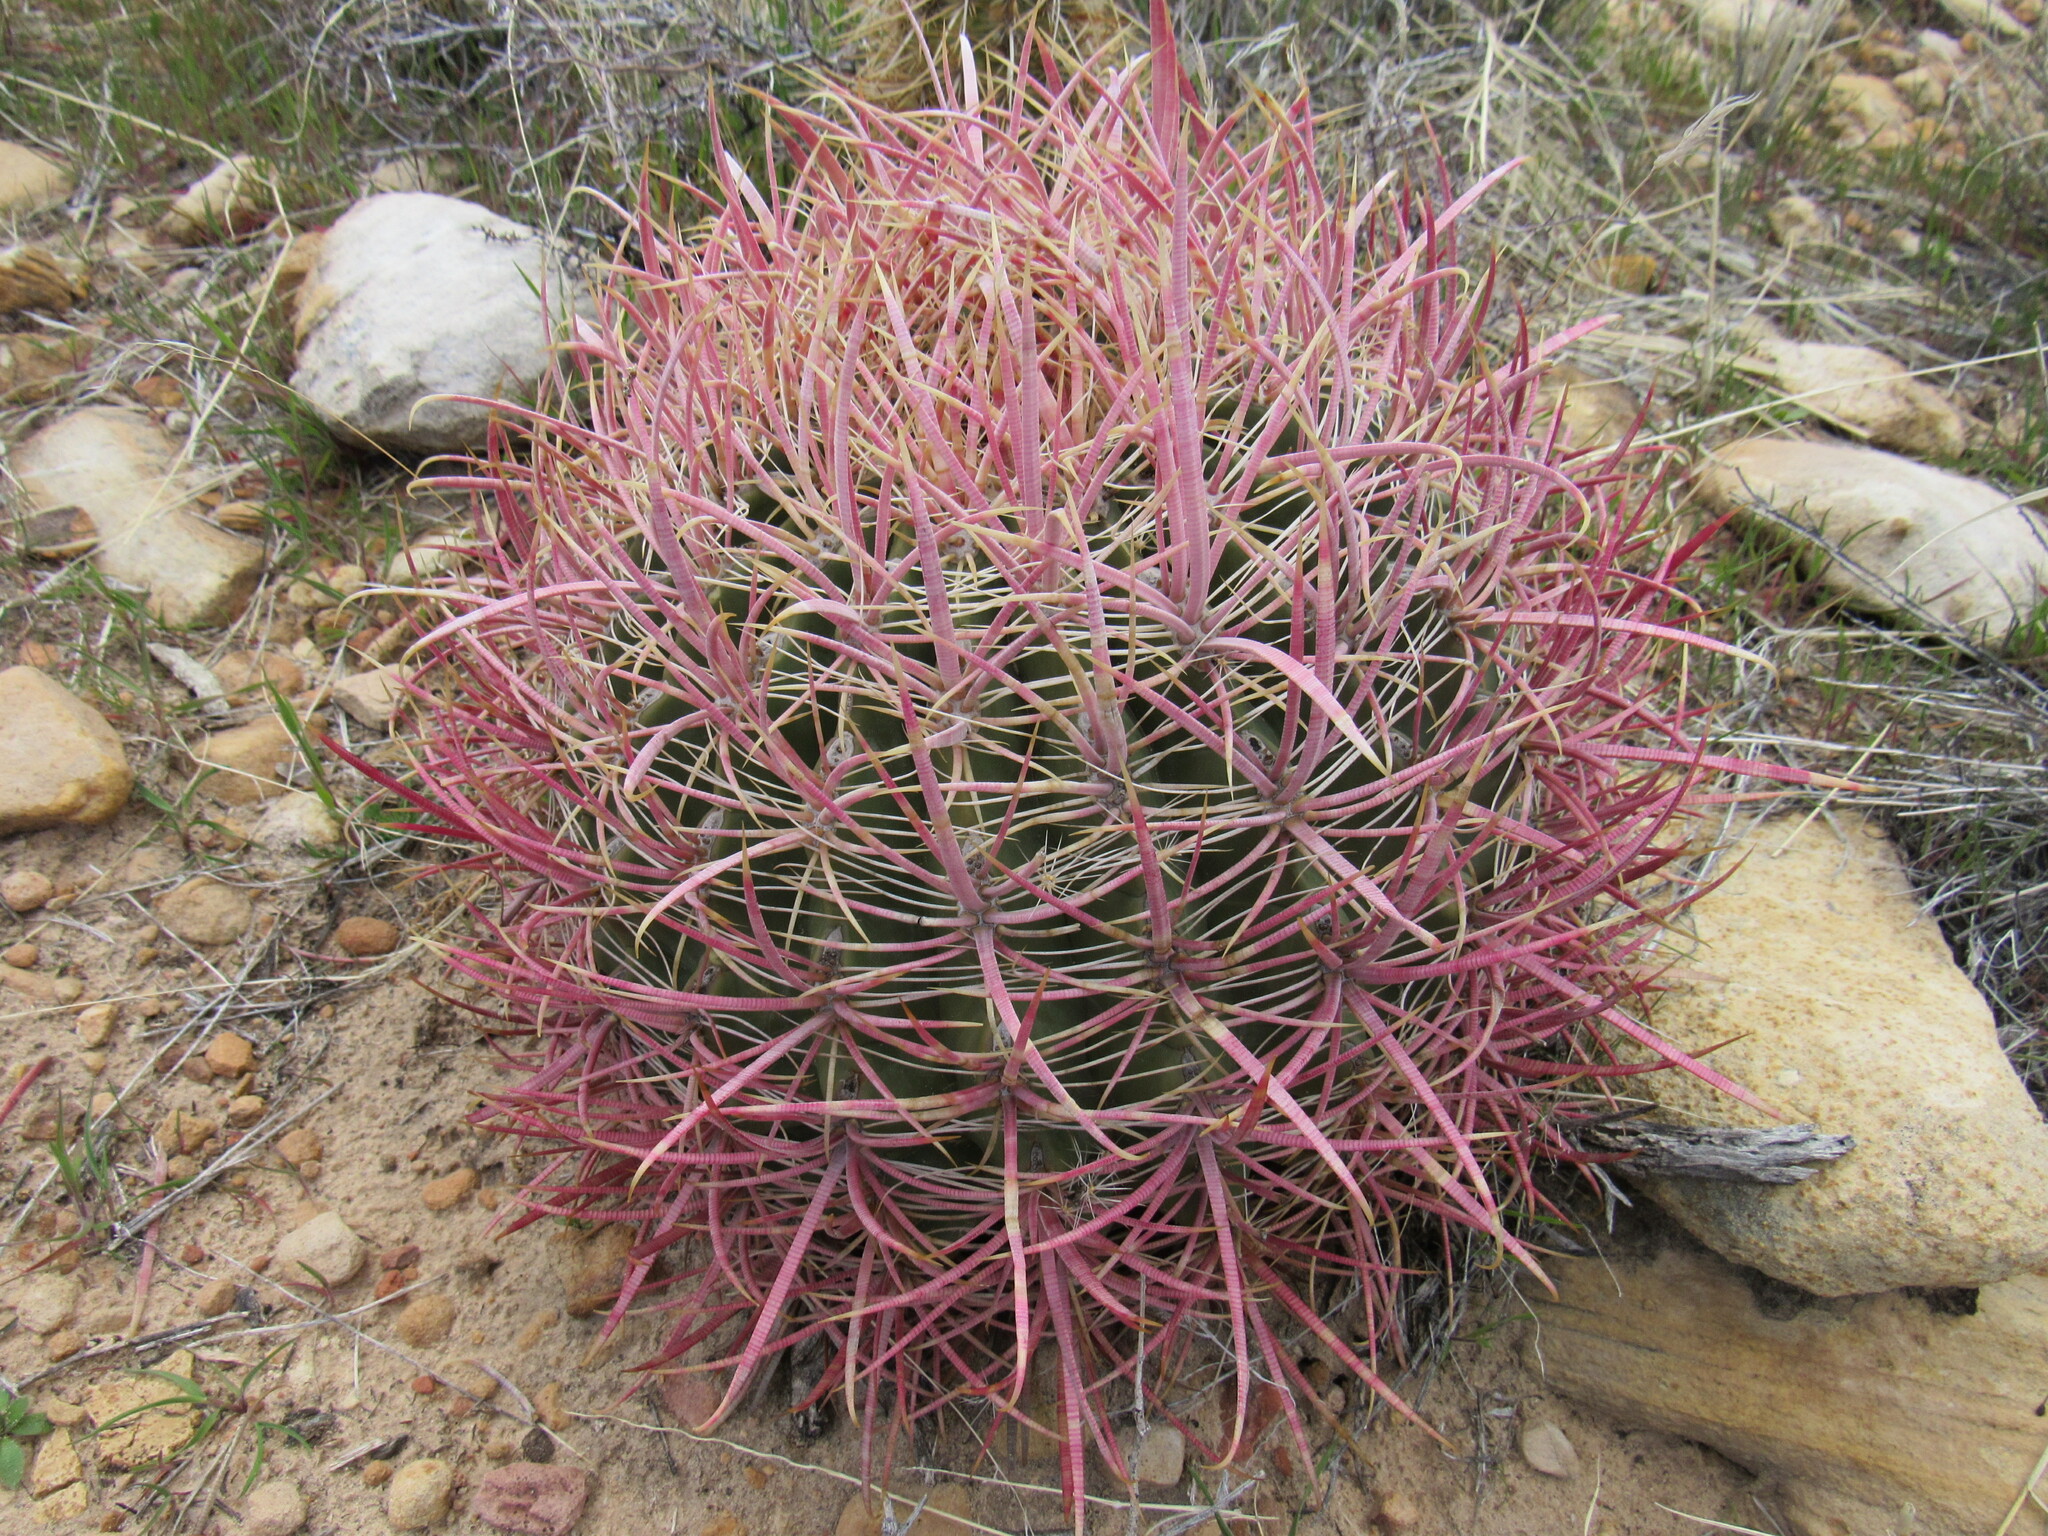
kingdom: Plantae
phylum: Tracheophyta
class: Magnoliopsida
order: Caryophyllales
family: Cactaceae
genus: Ferocactus
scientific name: Ferocactus cylindraceus
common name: California barrel cactus
